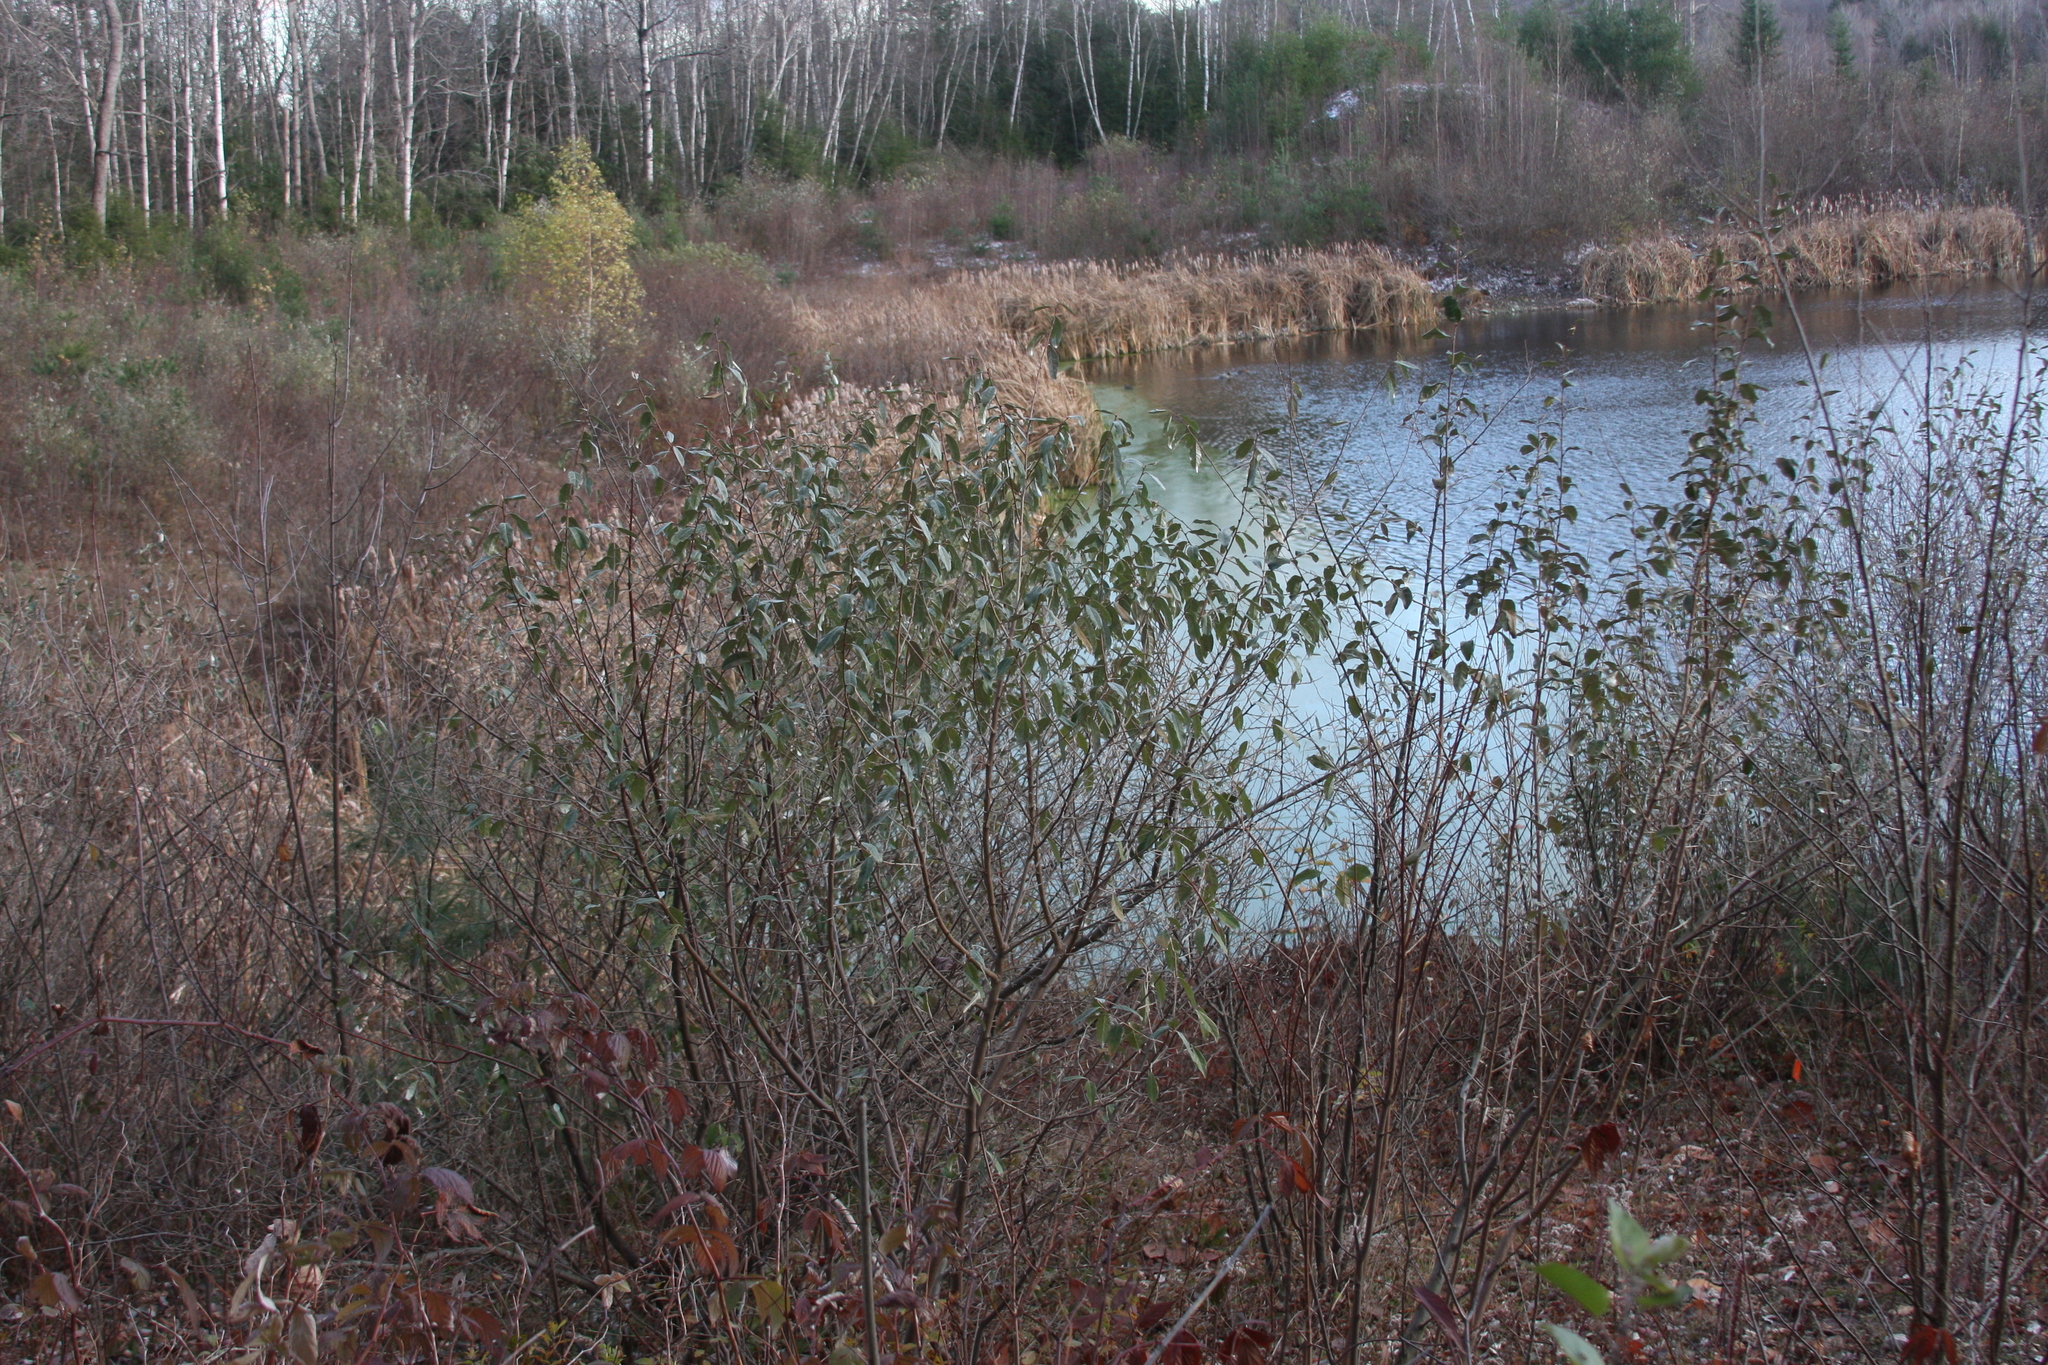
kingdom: Plantae
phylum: Tracheophyta
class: Magnoliopsida
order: Rosales
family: Elaeagnaceae
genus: Elaeagnus
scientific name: Elaeagnus umbellata
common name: Autumn olive
